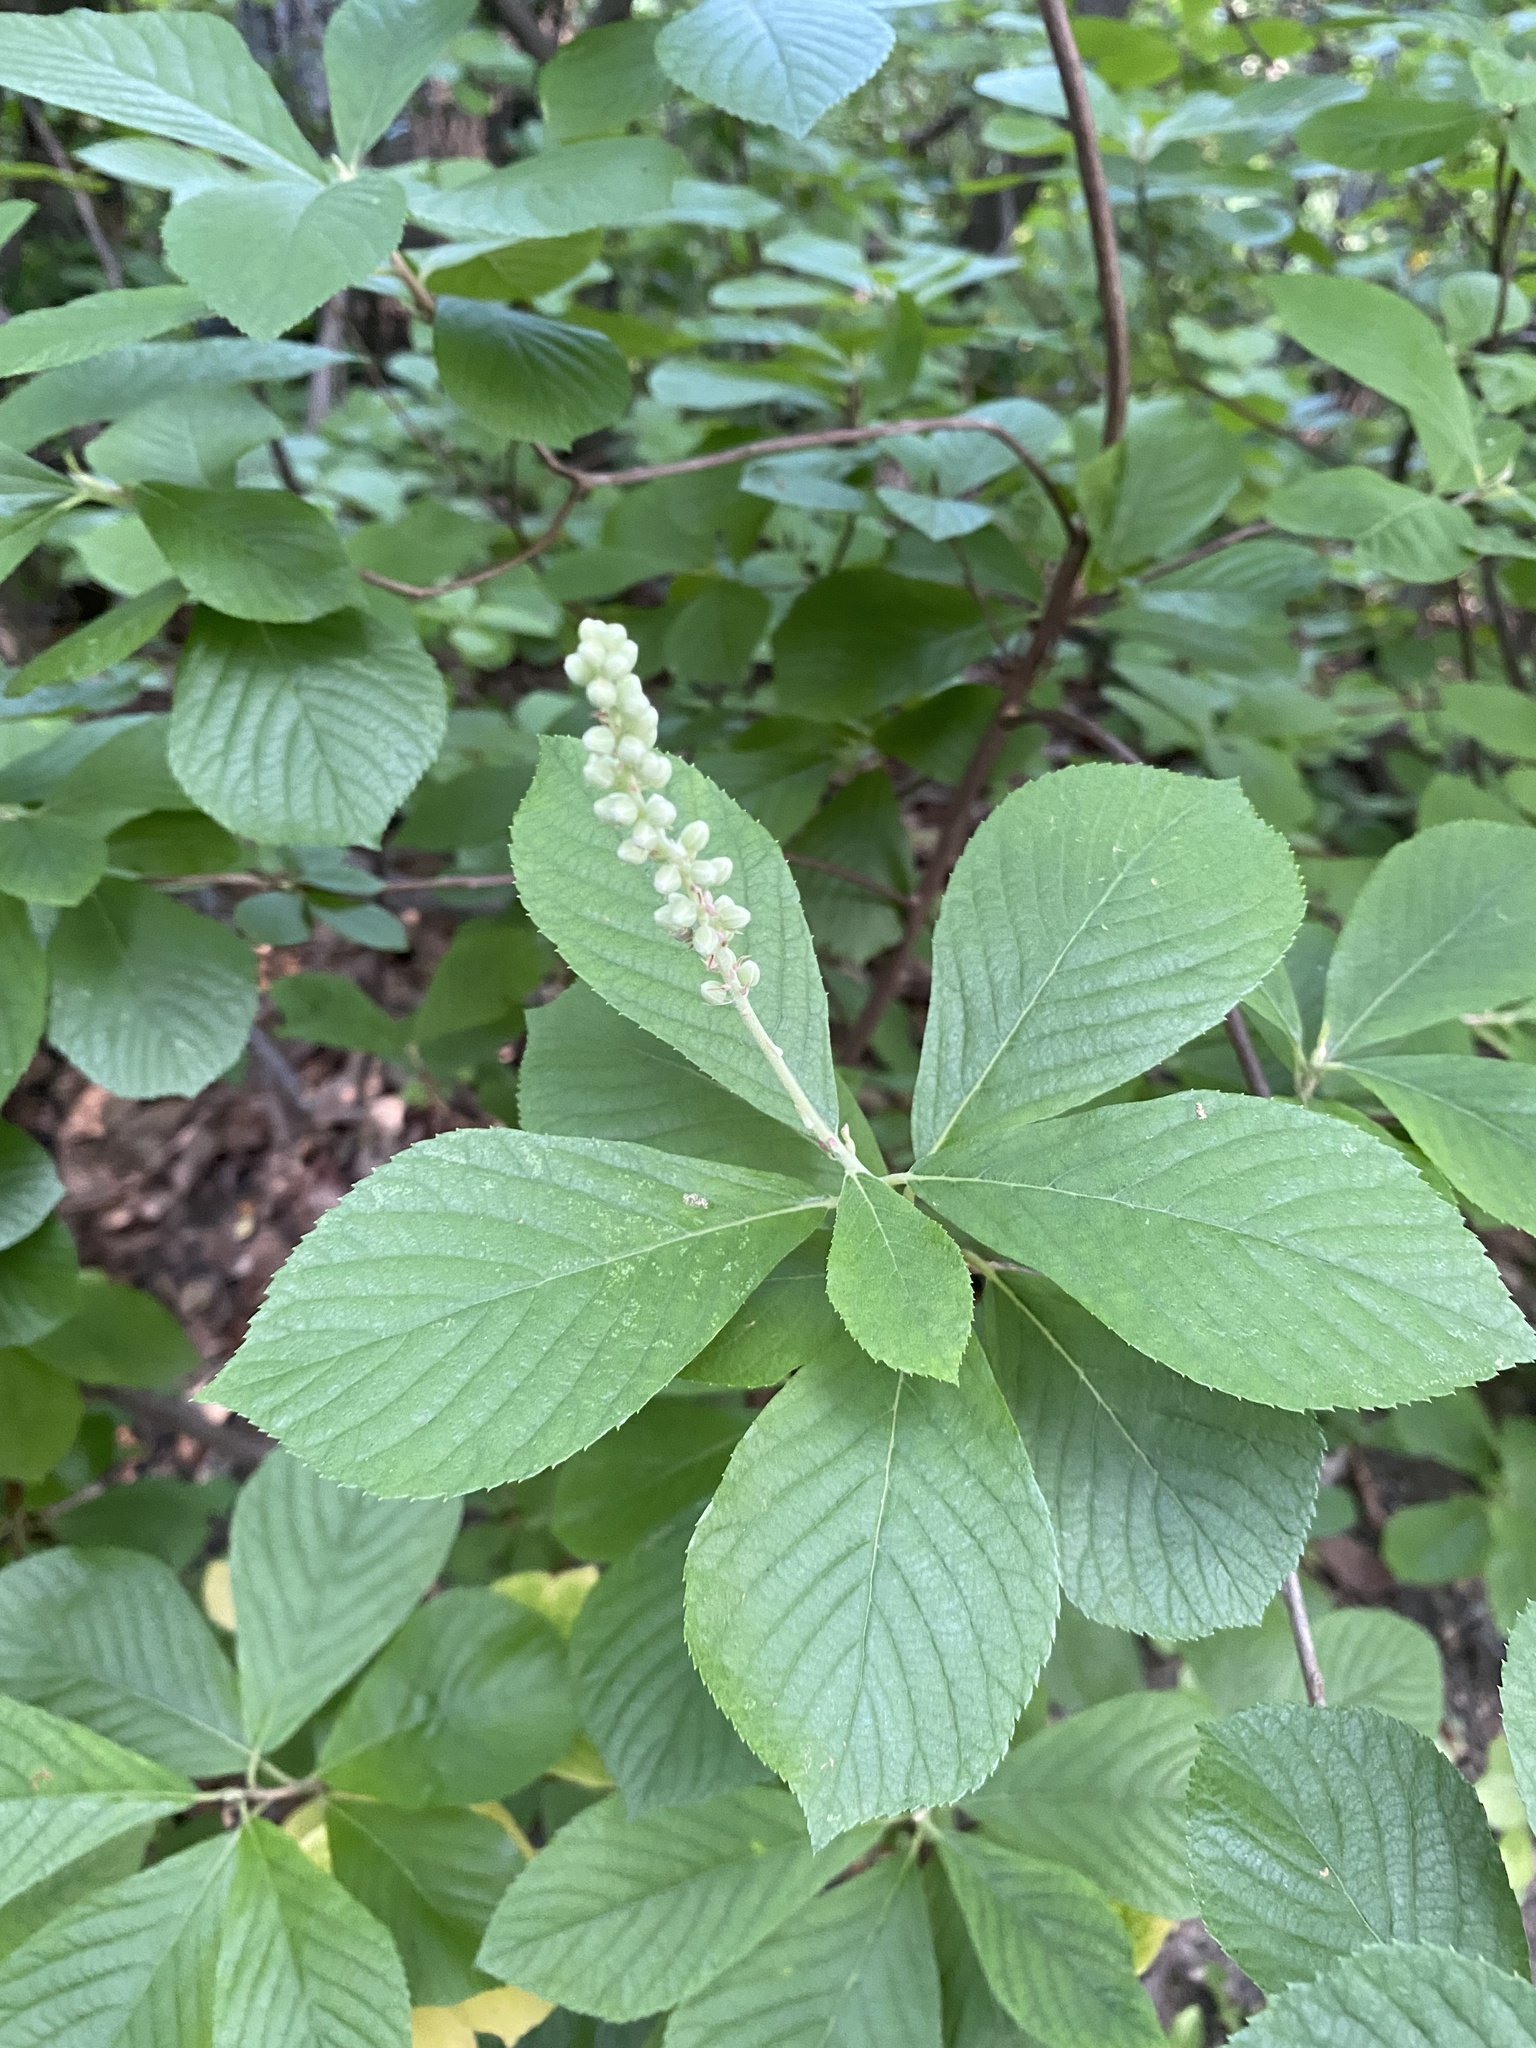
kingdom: Plantae
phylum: Tracheophyta
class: Magnoliopsida
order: Ericales
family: Clethraceae
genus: Clethra
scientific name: Clethra alnifolia
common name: Sweet pepperbush
